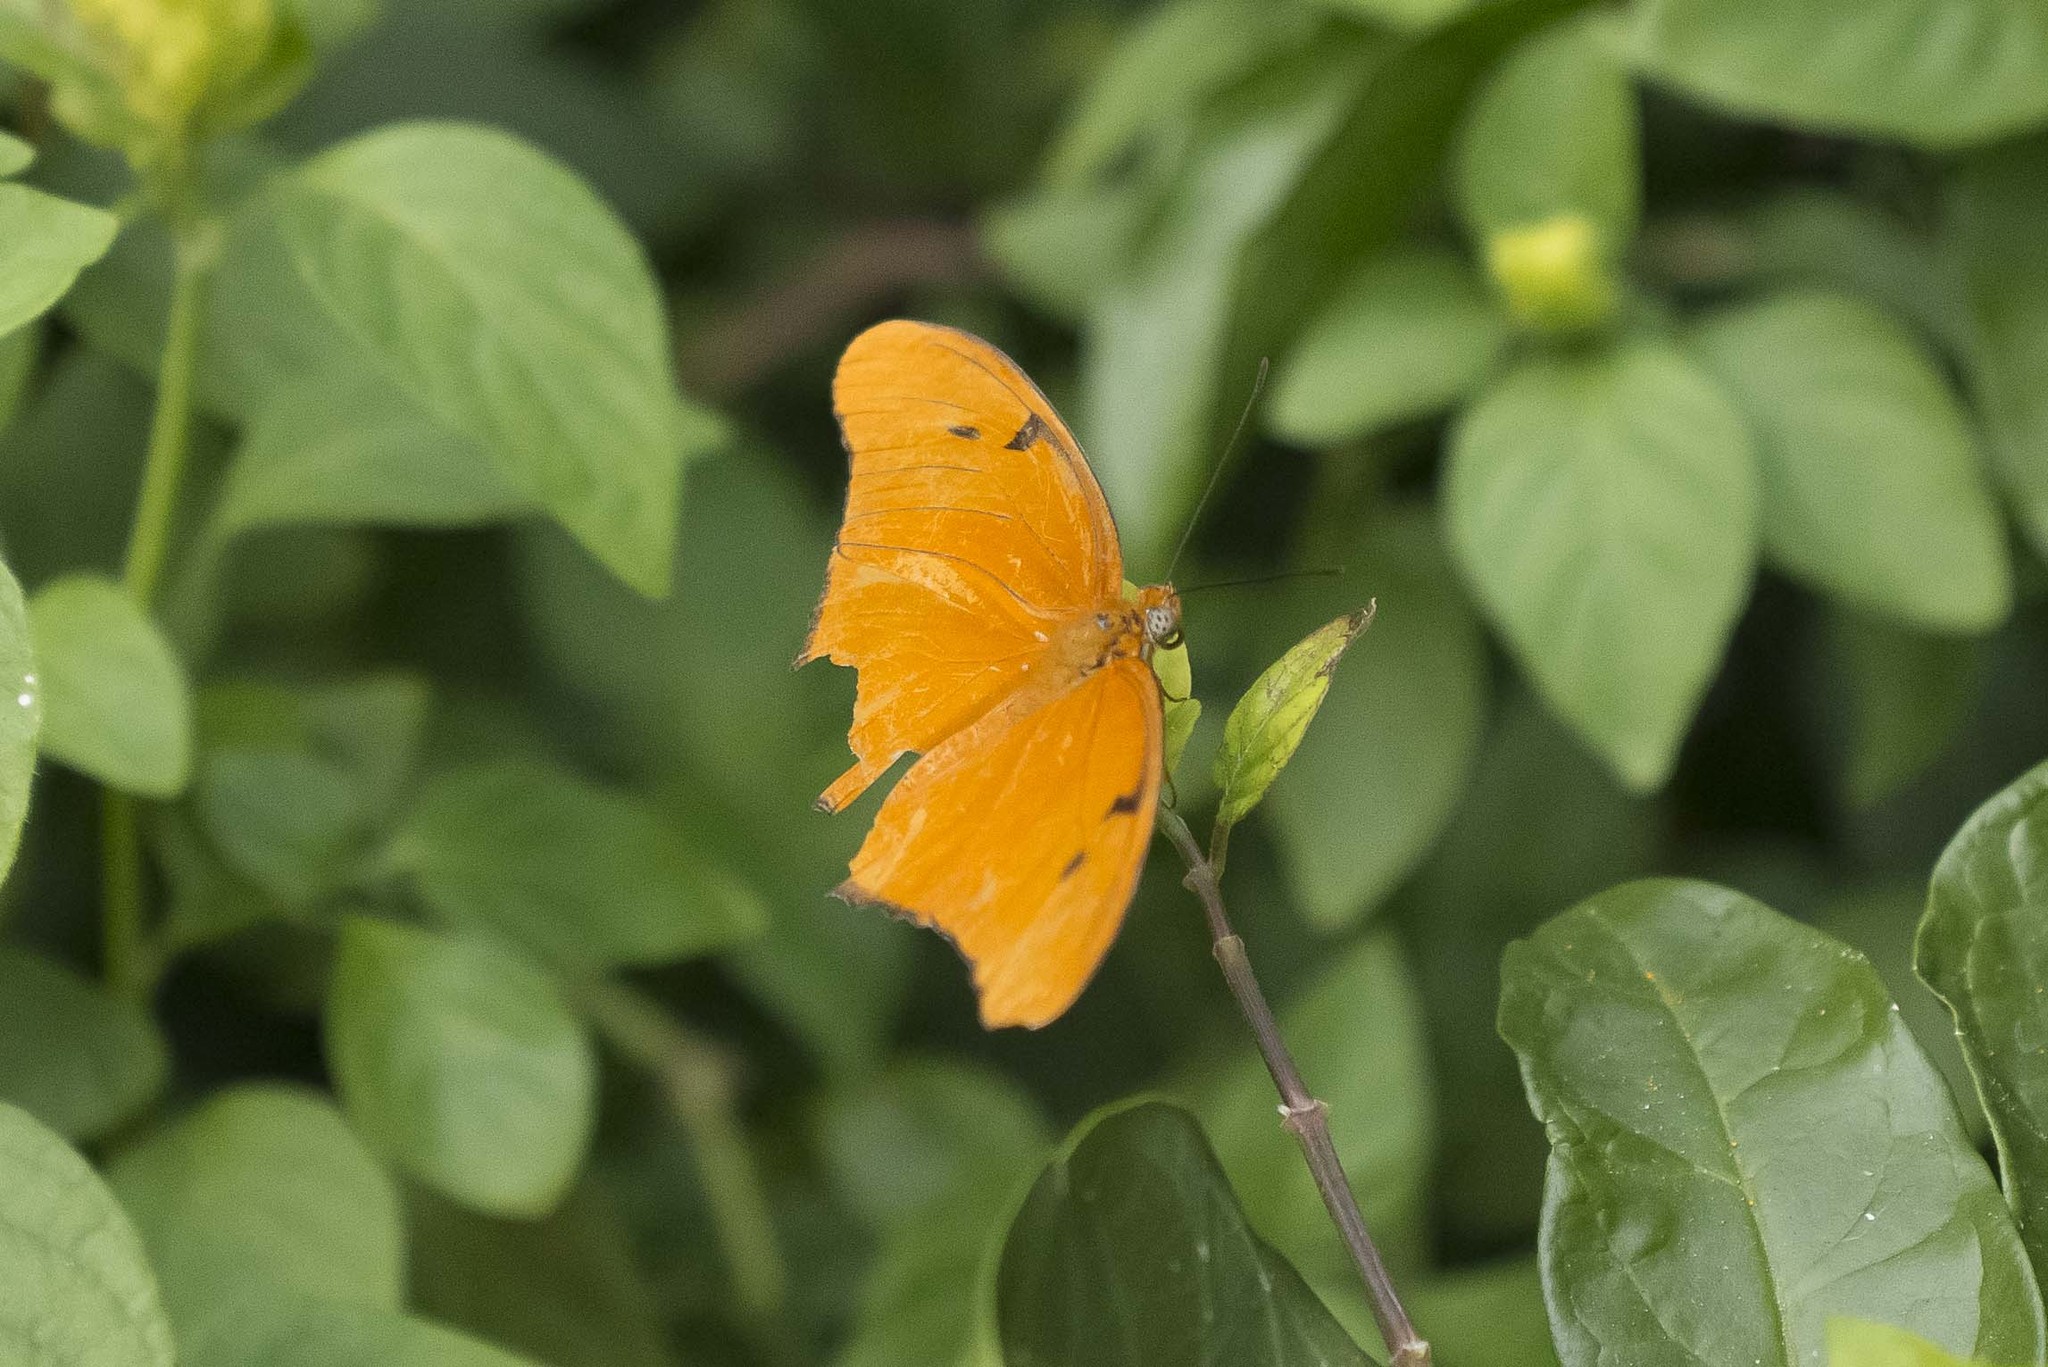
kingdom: Animalia
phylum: Arthropoda
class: Insecta
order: Lepidoptera
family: Nymphalidae
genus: Dryas
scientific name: Dryas iulia
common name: Flambeau
